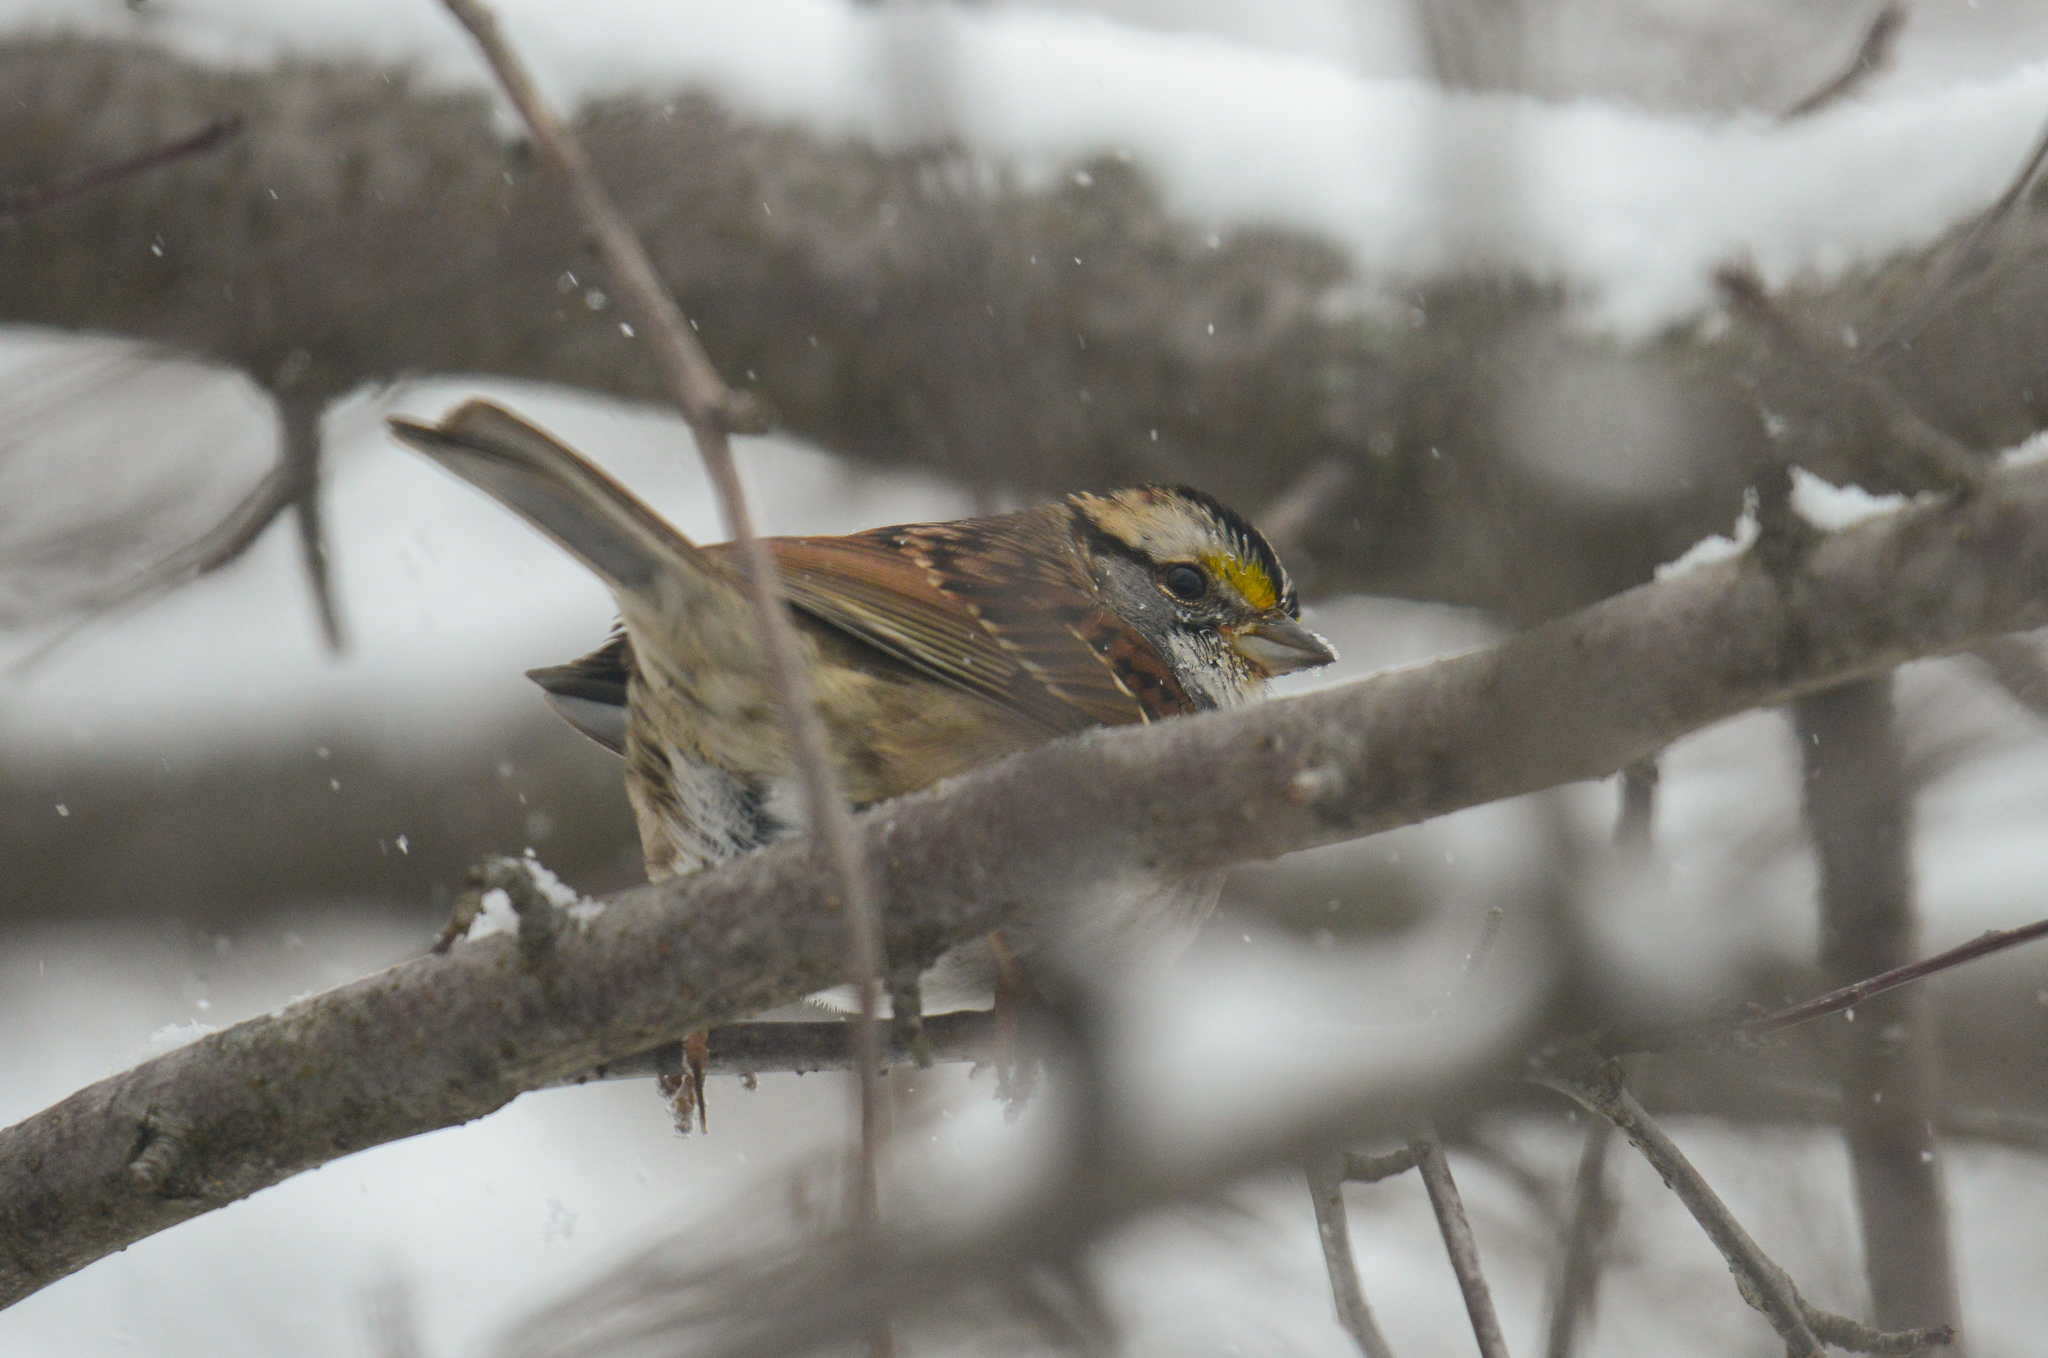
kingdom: Animalia
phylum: Chordata
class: Aves
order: Passeriformes
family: Passerellidae
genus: Zonotrichia
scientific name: Zonotrichia albicollis
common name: White-throated sparrow
